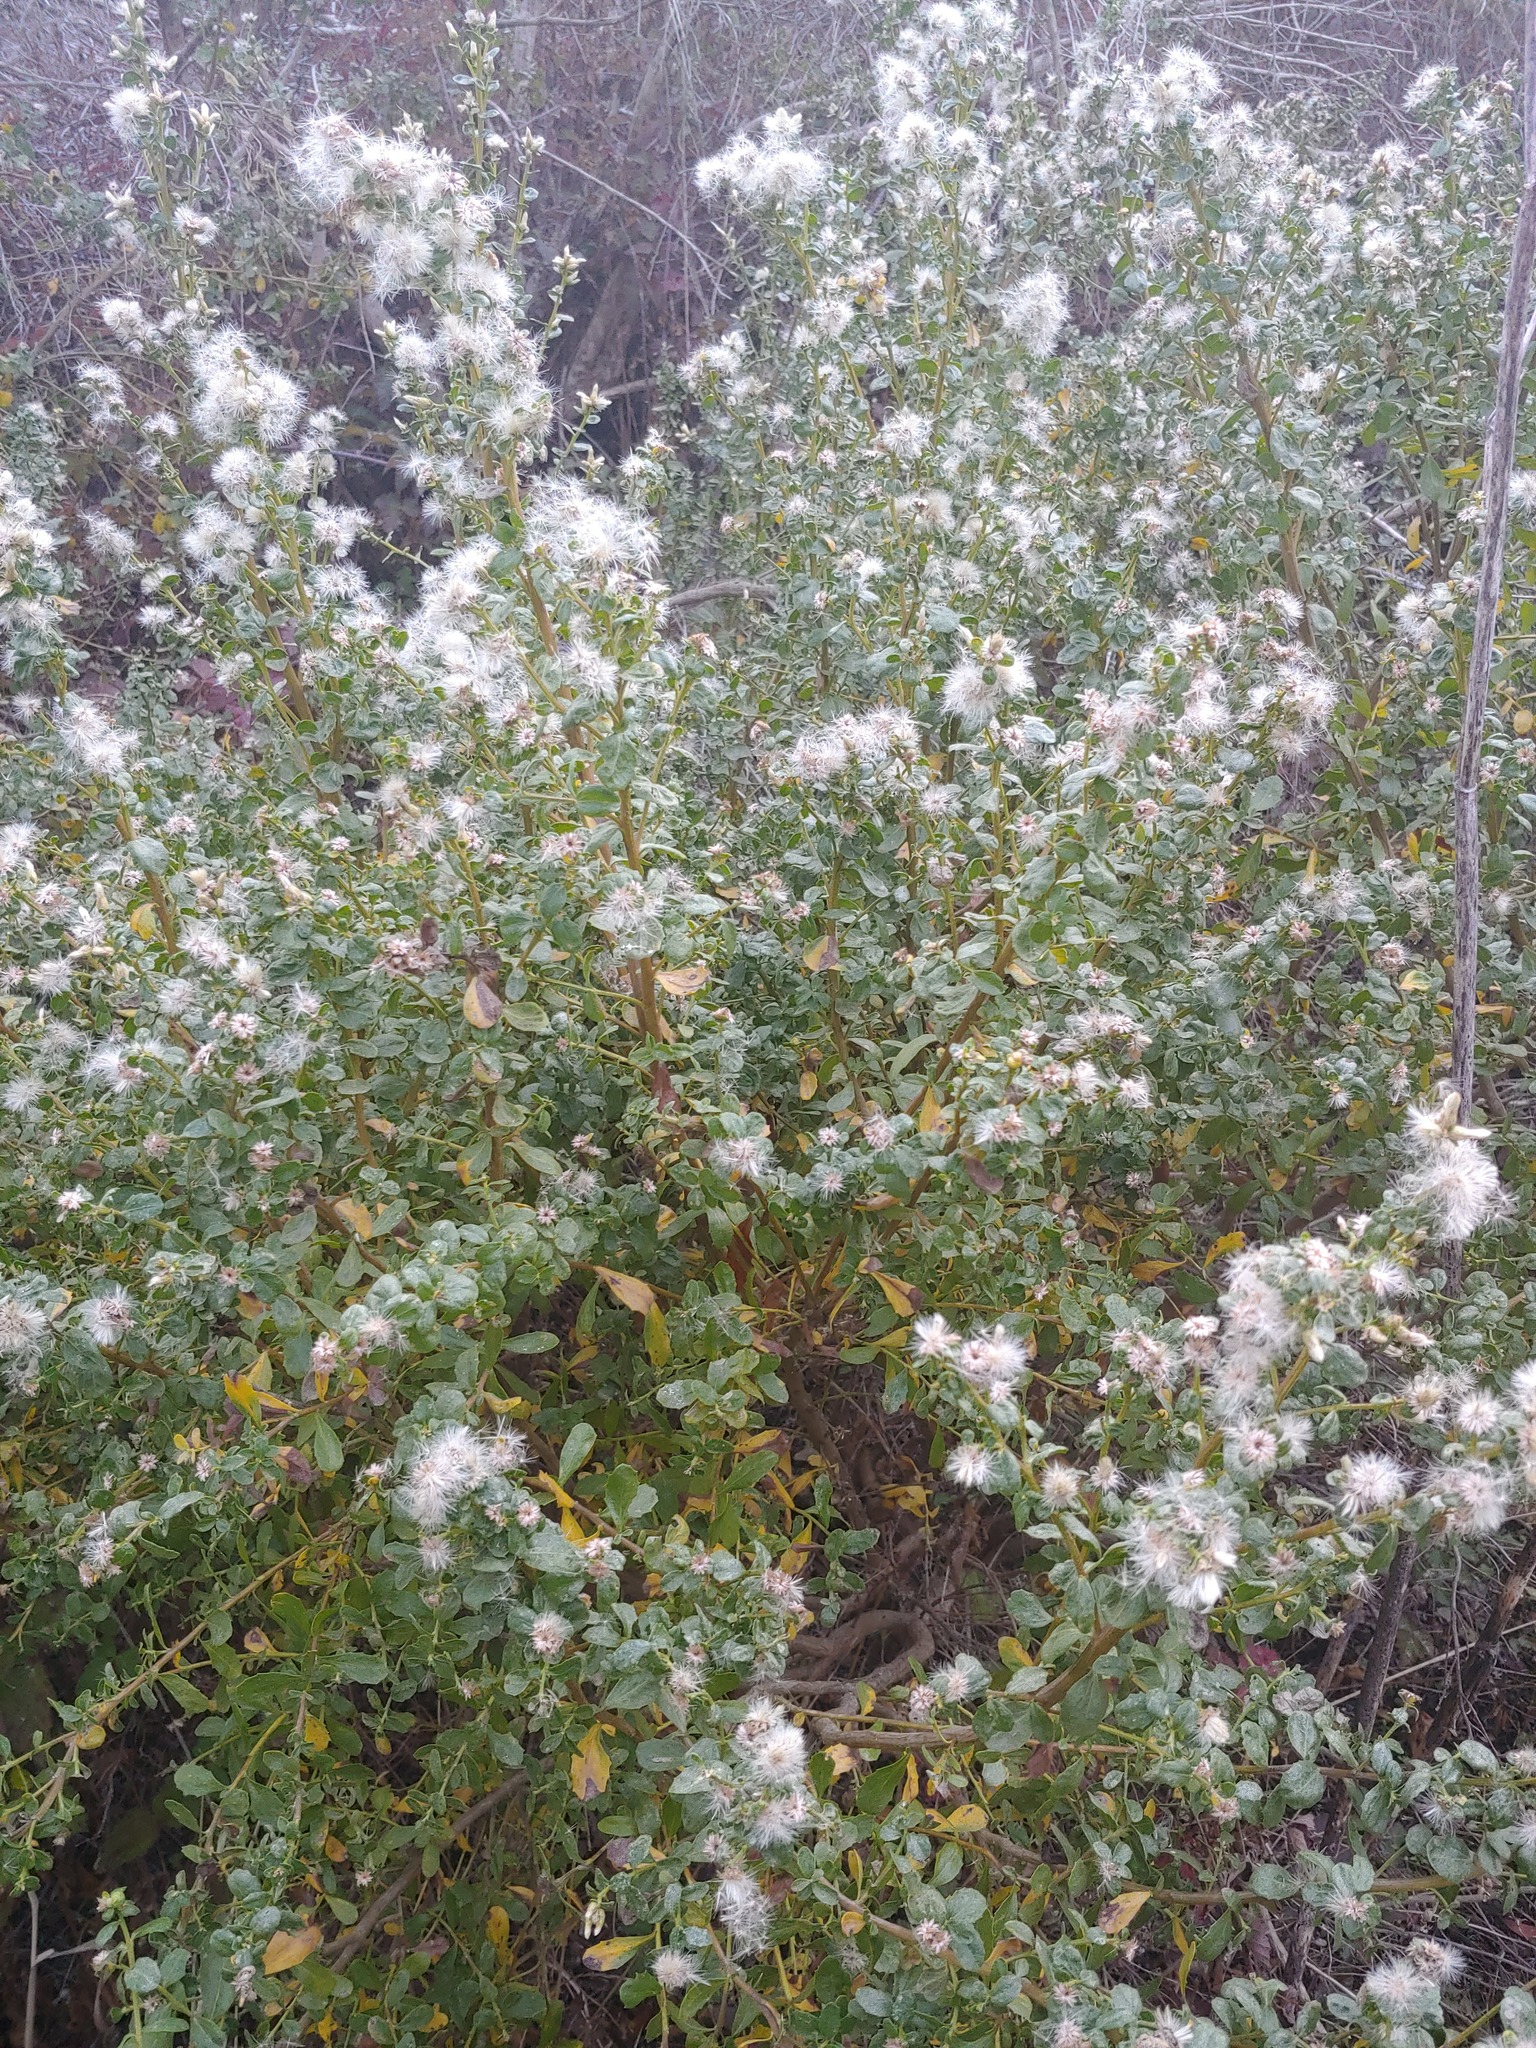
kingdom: Plantae
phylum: Tracheophyta
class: Magnoliopsida
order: Asterales
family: Asteraceae
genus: Baccharis
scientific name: Baccharis pilularis
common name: Coyotebrush
